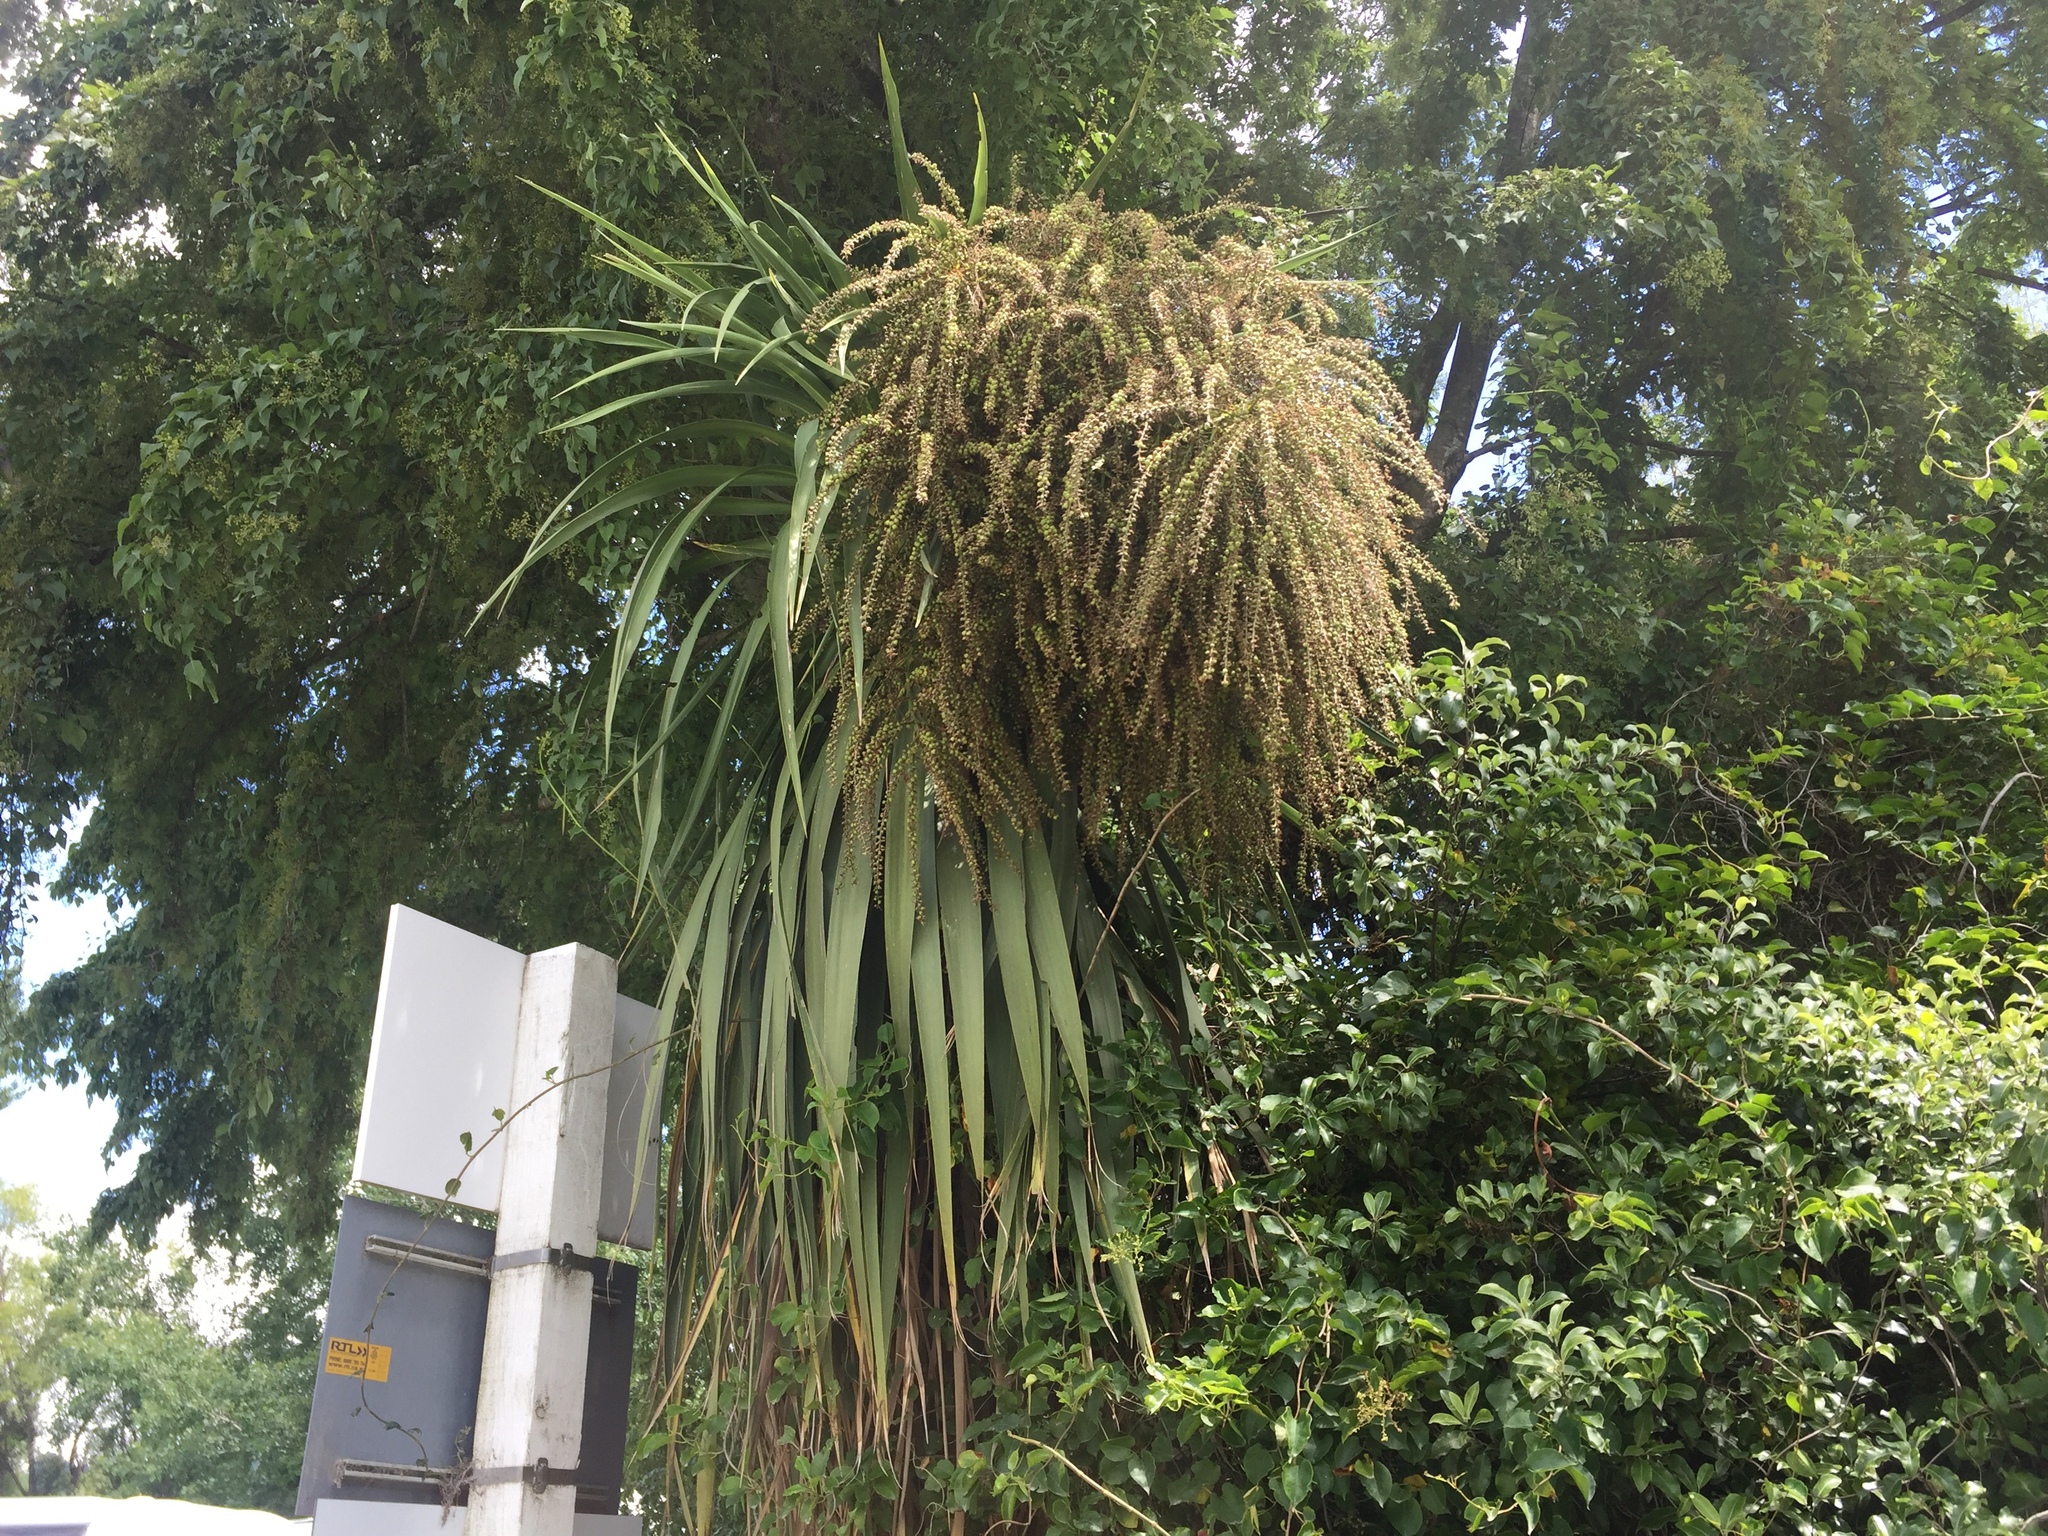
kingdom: Plantae
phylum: Tracheophyta
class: Liliopsida
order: Asparagales
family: Asparagaceae
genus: Cordyline
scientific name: Cordyline australis
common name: Cabbage-palm
